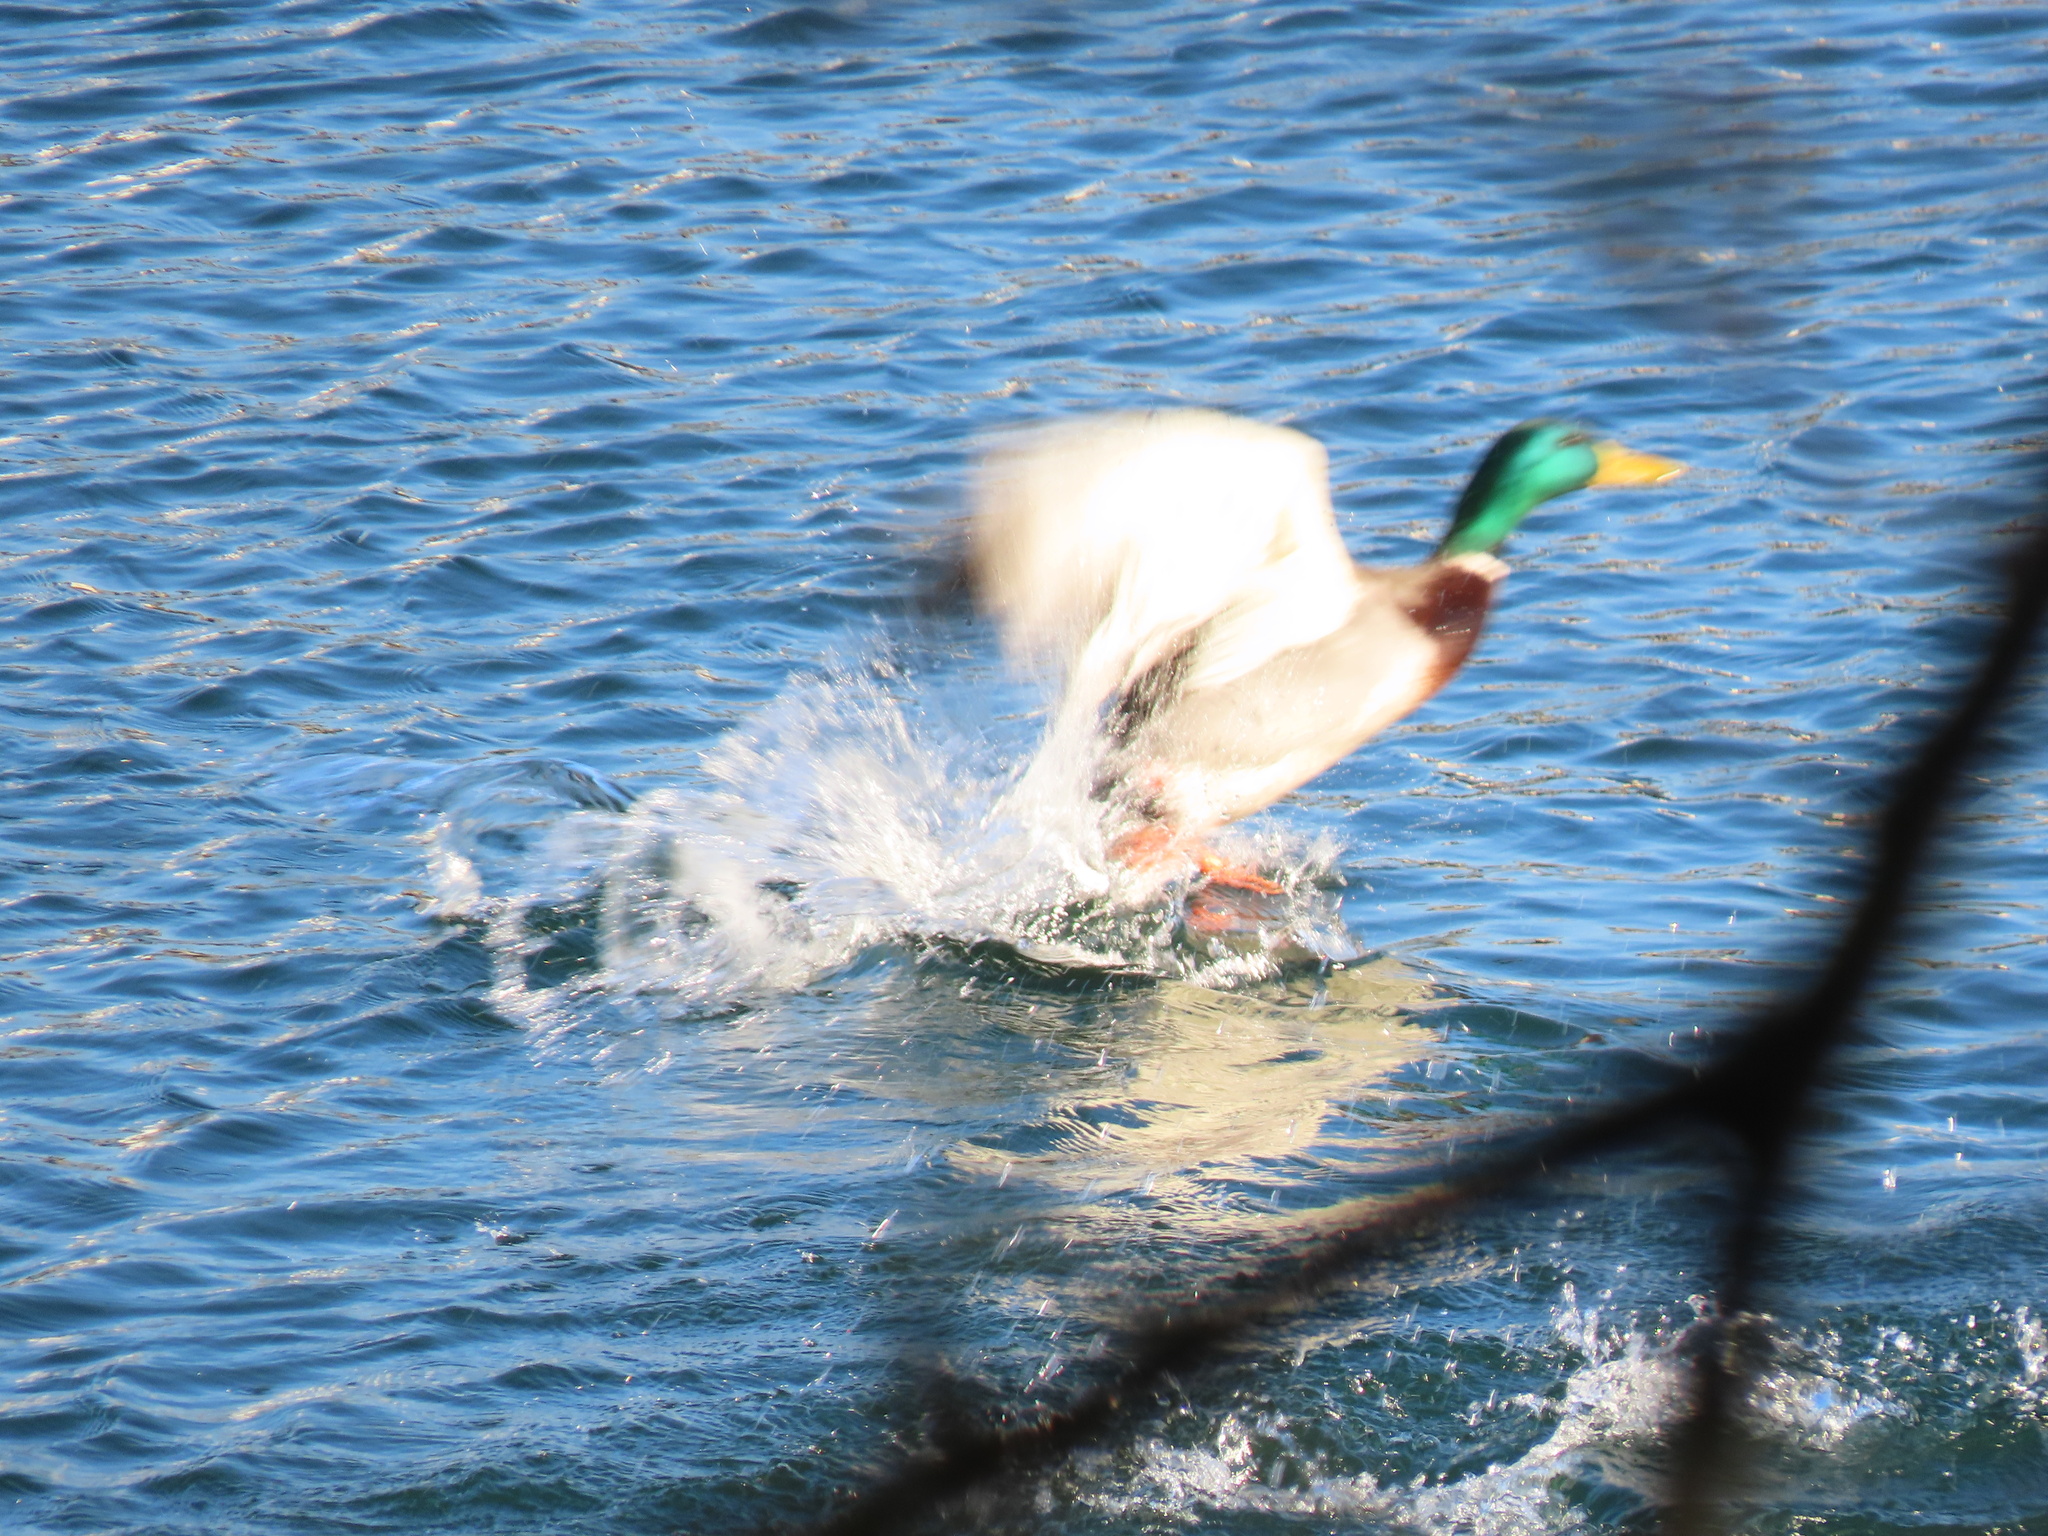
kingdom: Animalia
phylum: Chordata
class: Aves
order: Anseriformes
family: Anatidae
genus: Anas
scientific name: Anas platyrhynchos
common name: Mallard
